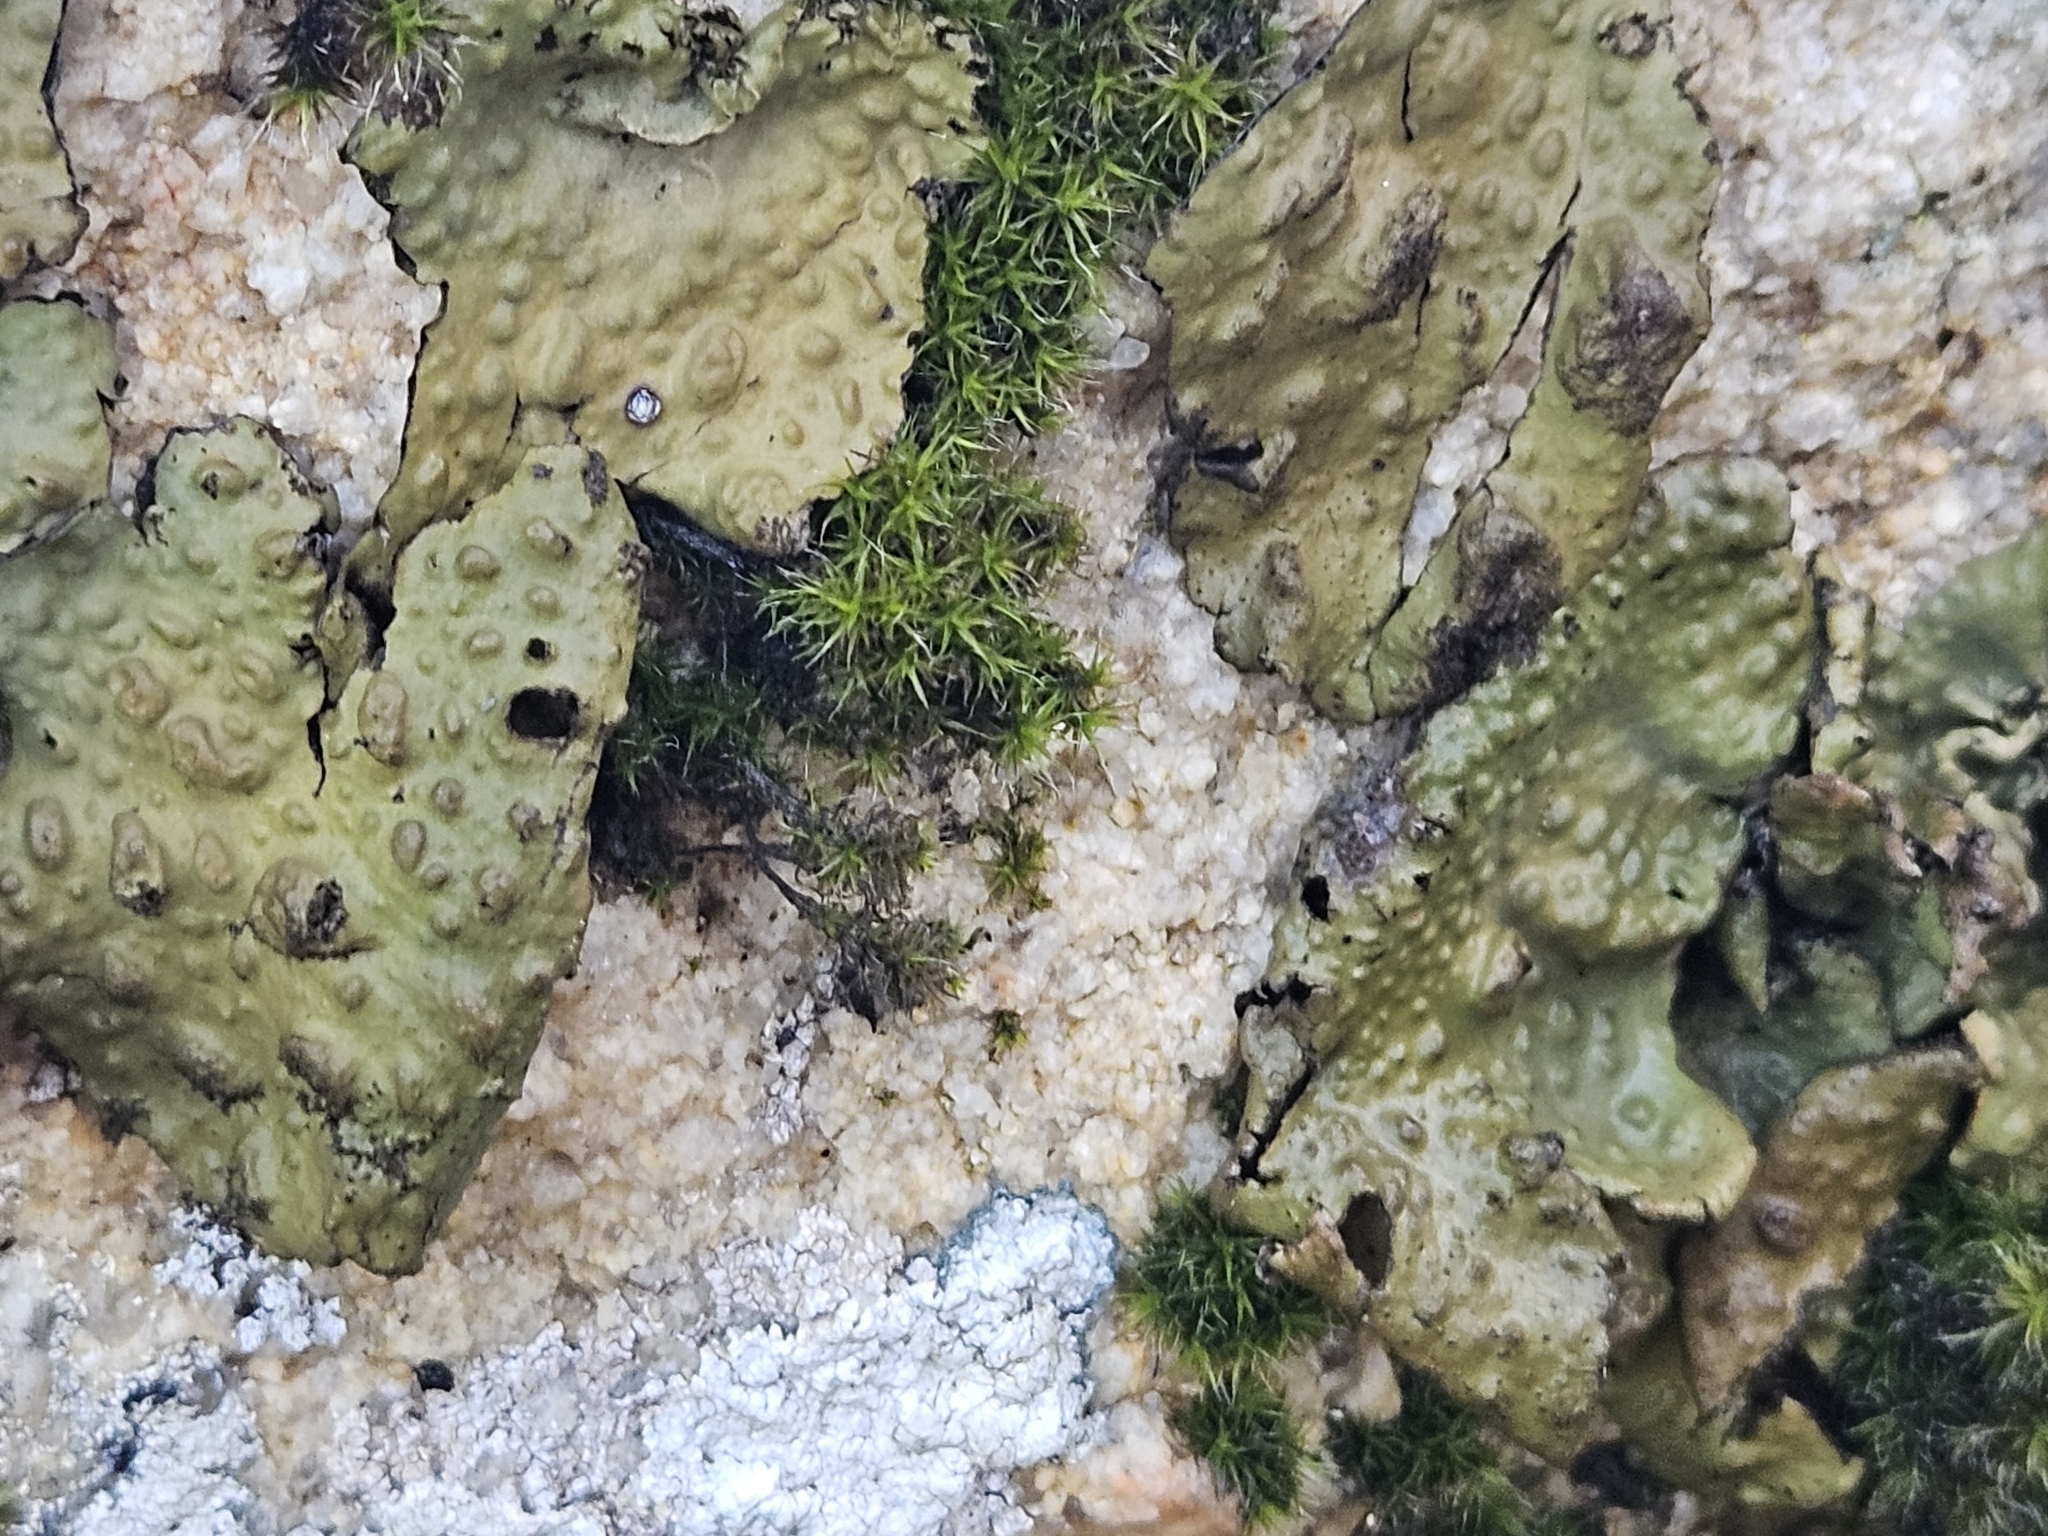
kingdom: Fungi
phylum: Ascomycota
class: Lecanoromycetes
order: Umbilicariales
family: Umbilicariaceae
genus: Lasallia
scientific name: Lasallia pustulata
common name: Blistered toadskin lichen
